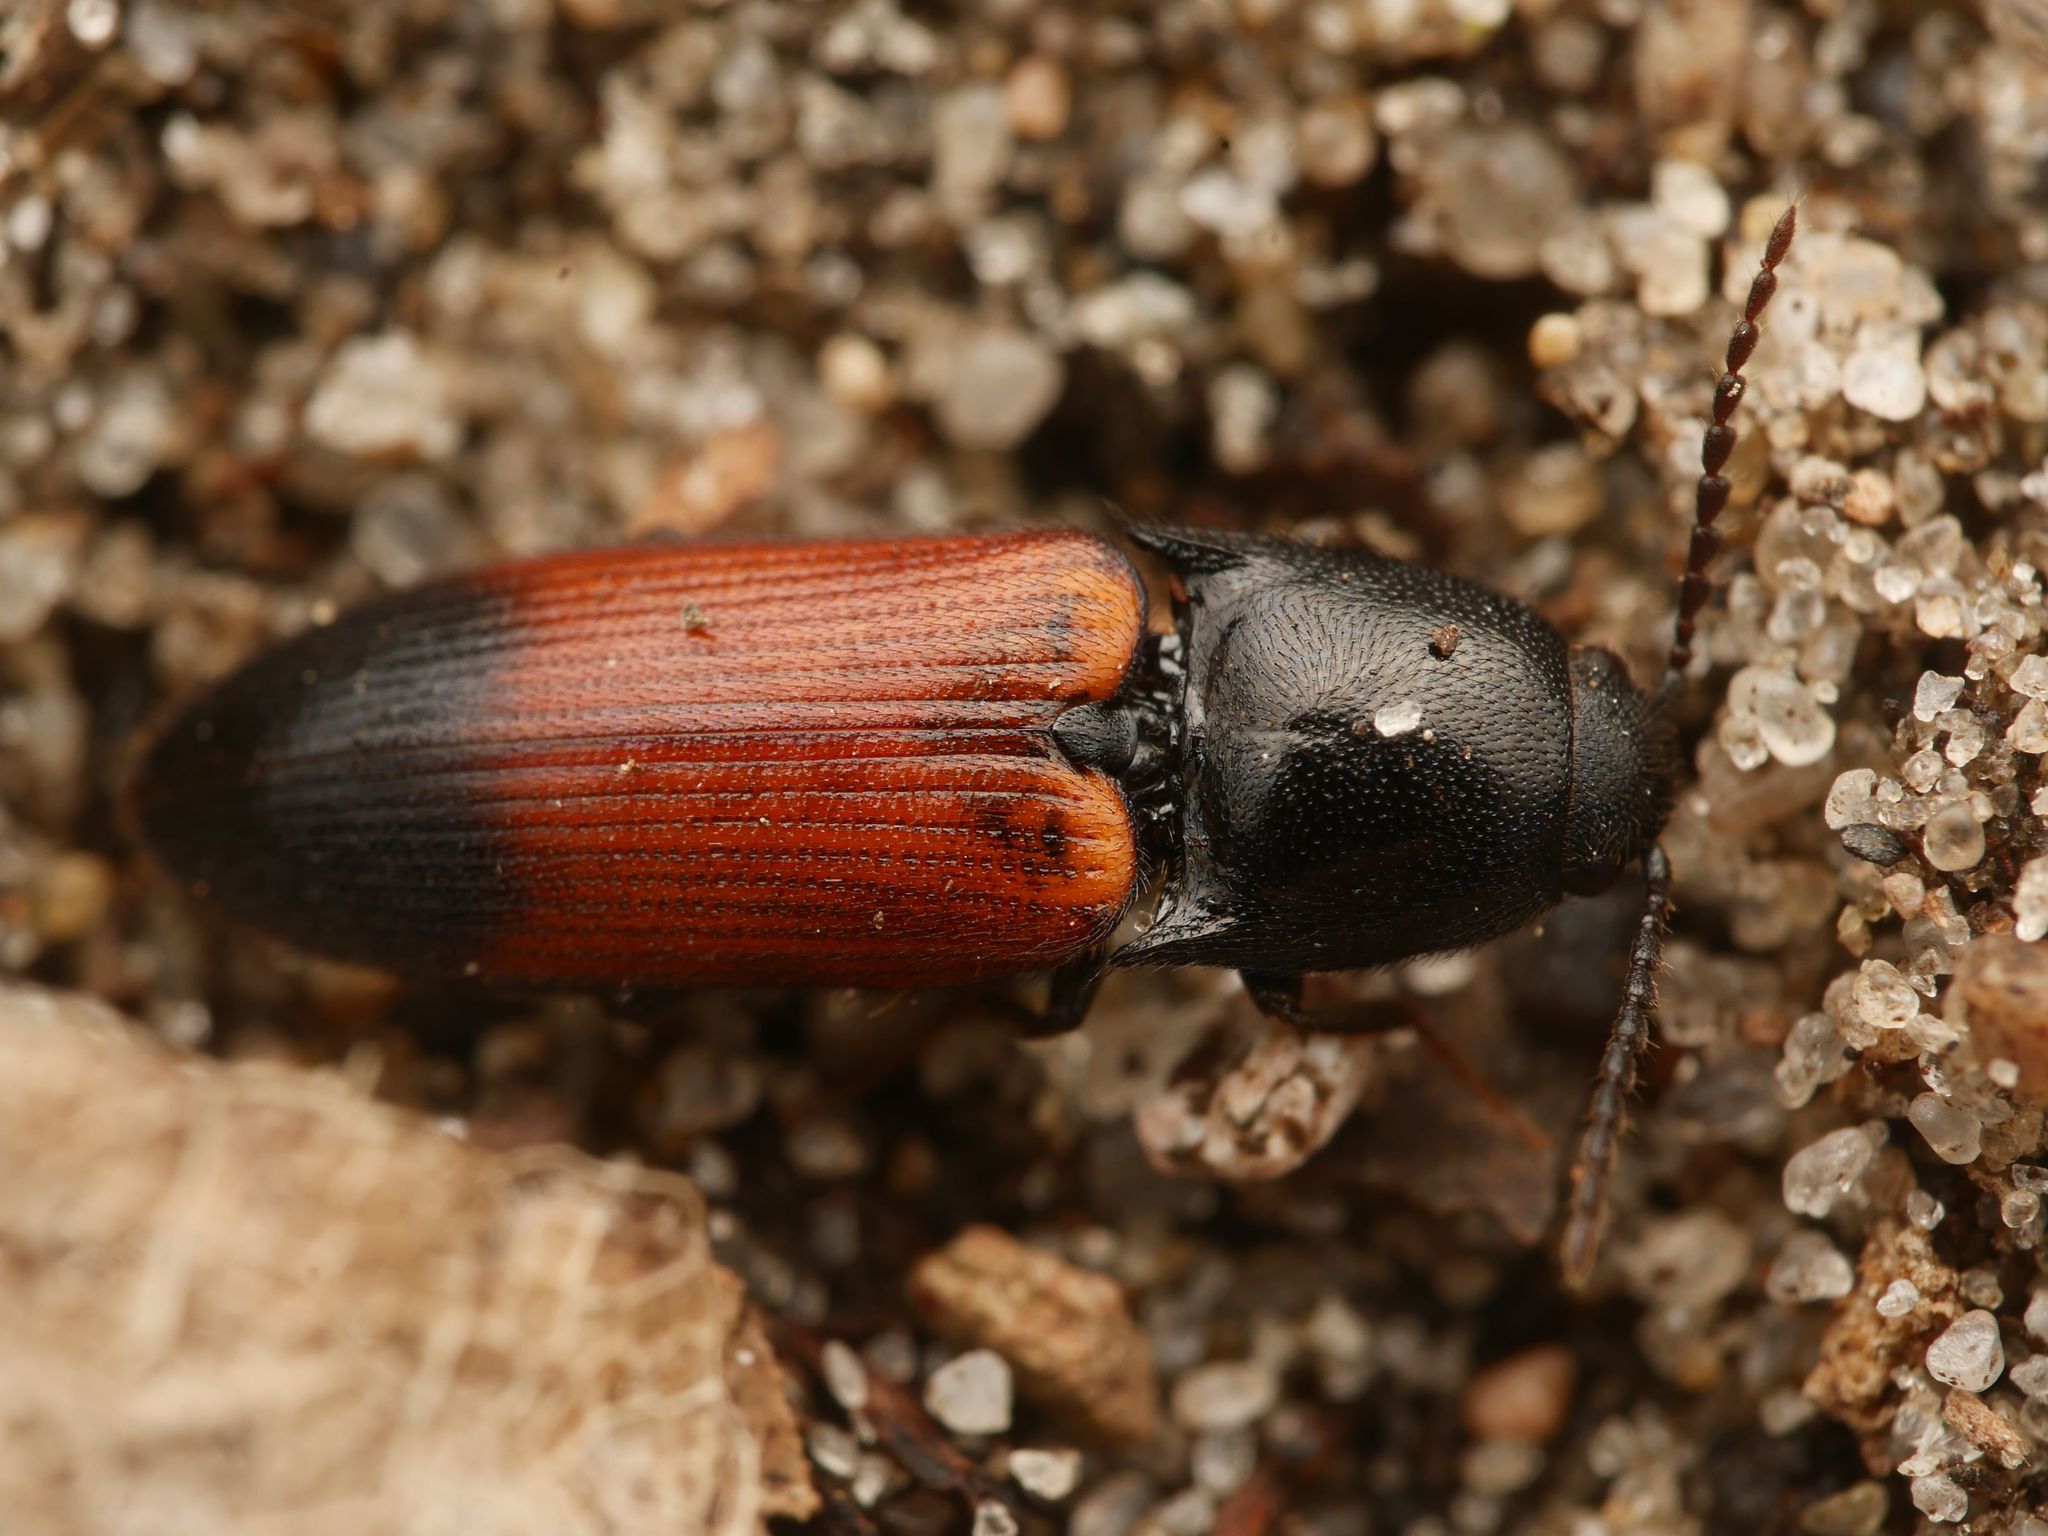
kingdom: Animalia
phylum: Arthropoda
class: Insecta
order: Coleoptera
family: Elateridae
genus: Ampedus
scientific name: Ampedus balteatus
